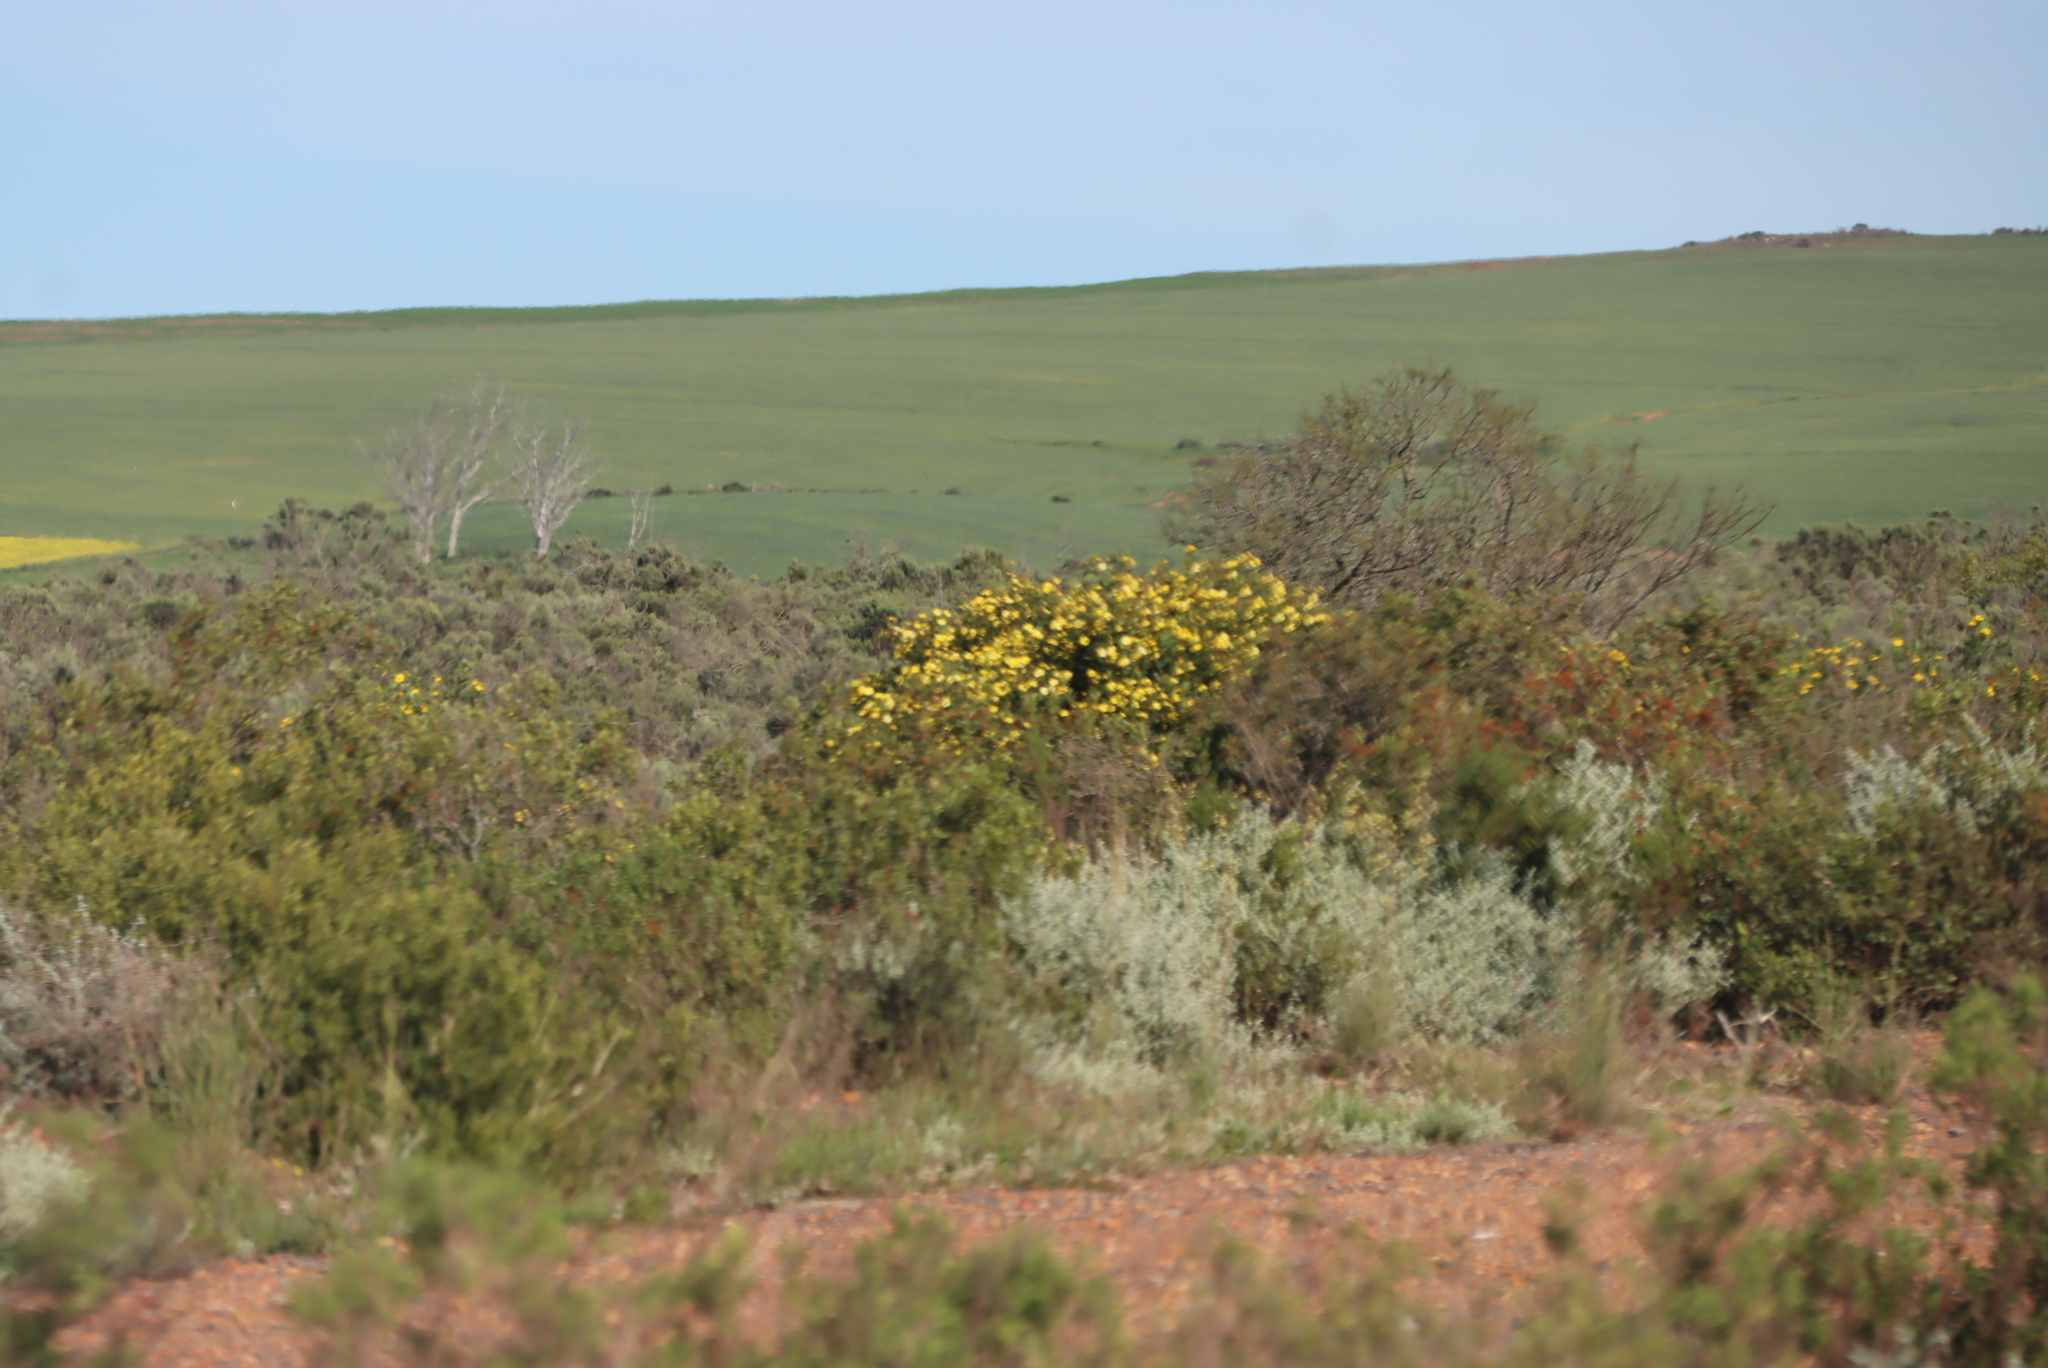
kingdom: Plantae
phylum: Tracheophyta
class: Magnoliopsida
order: Asterales
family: Asteraceae
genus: Osteospermum
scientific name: Osteospermum moniliferum
